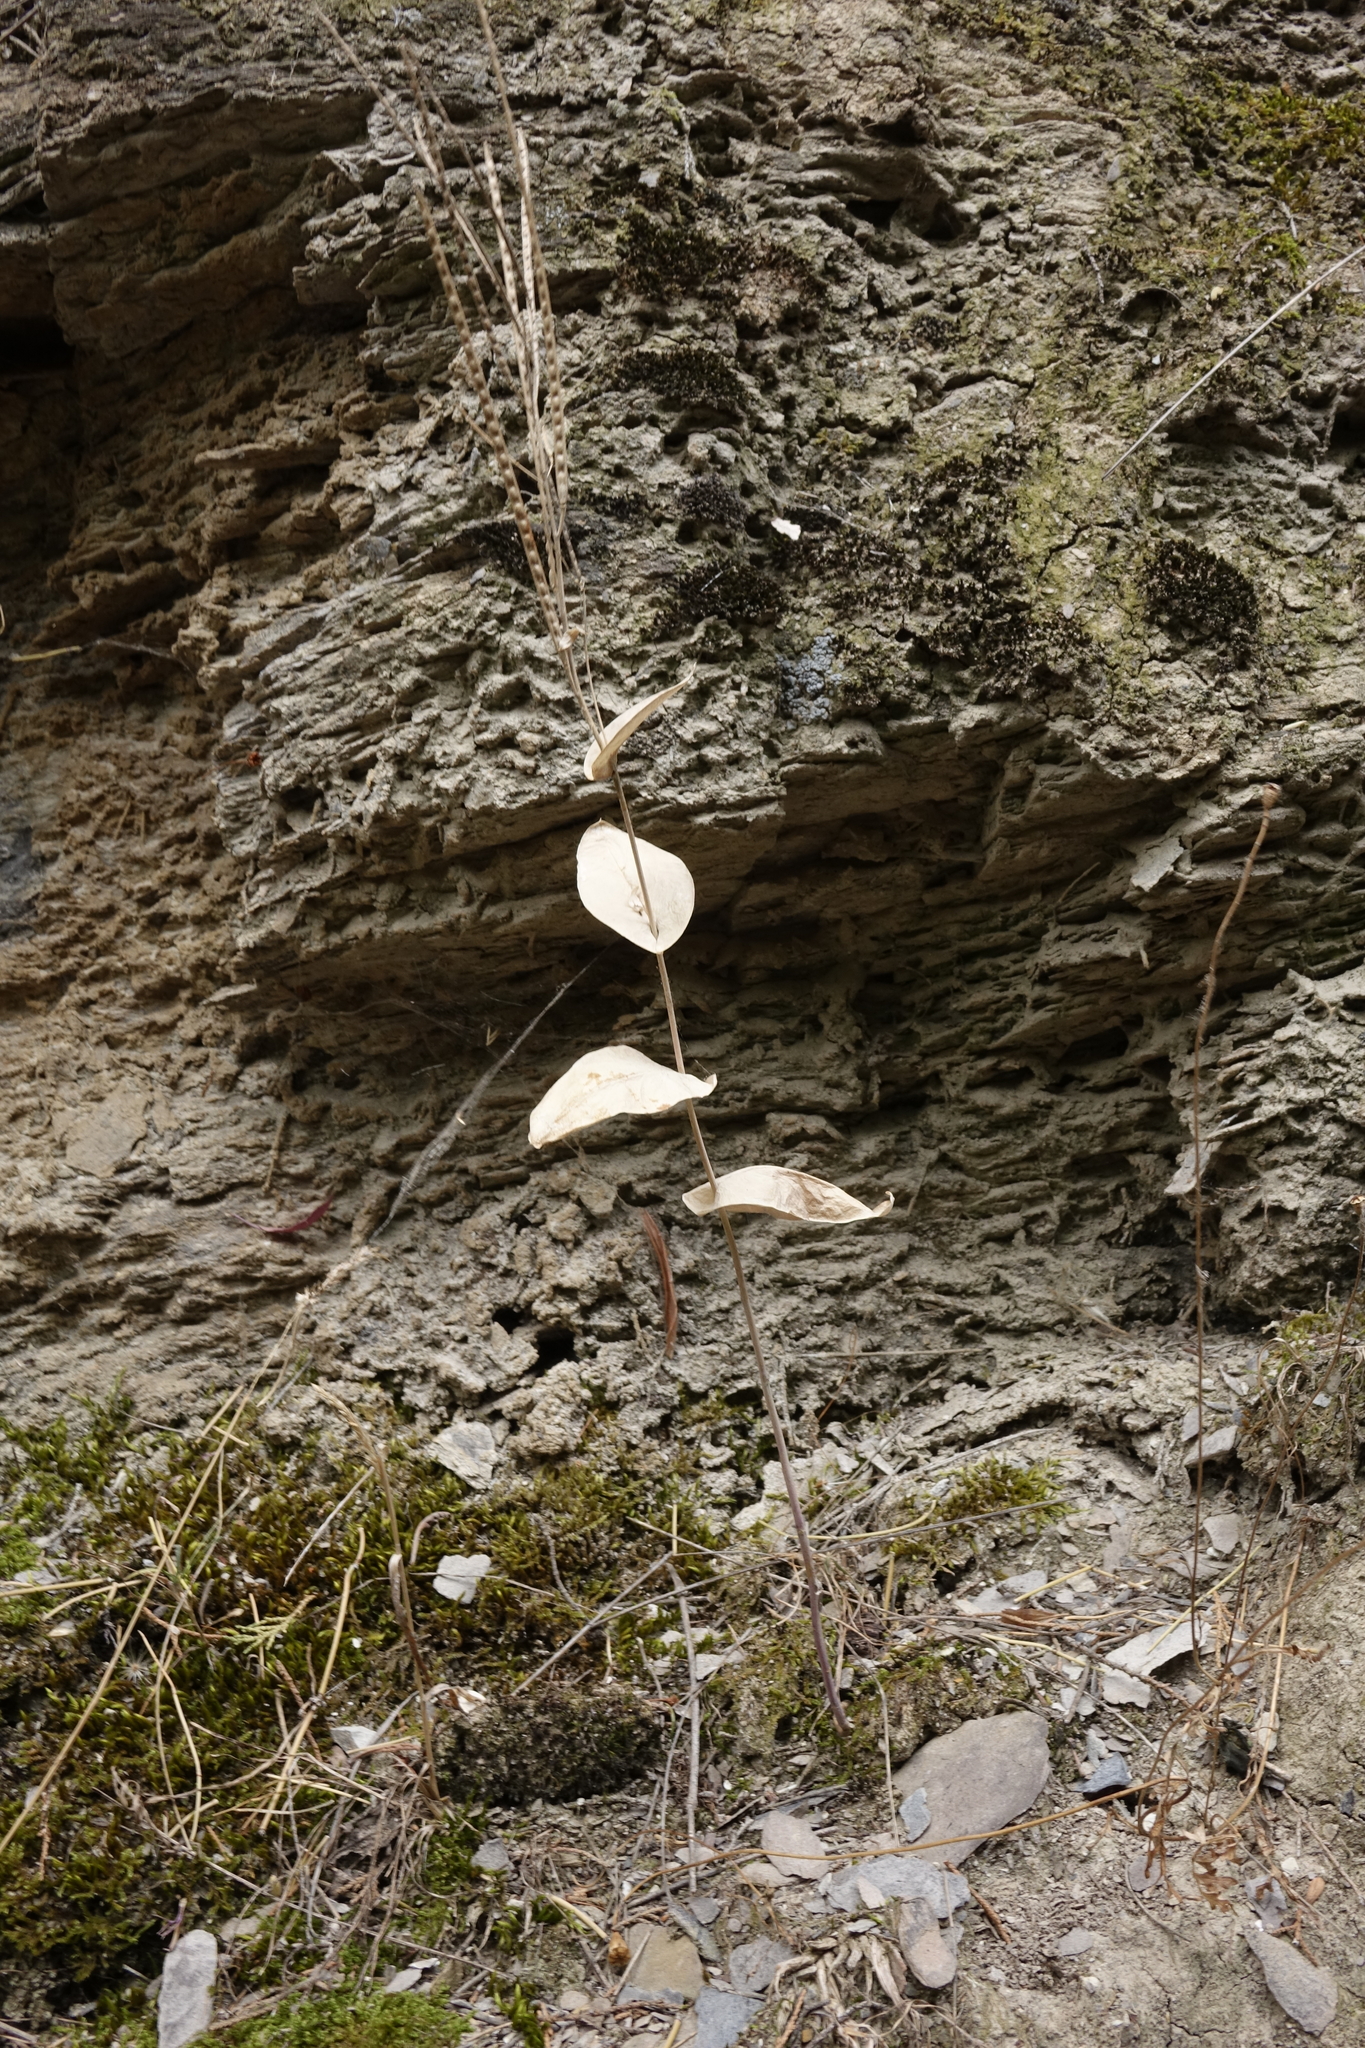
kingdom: Plantae
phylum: Tracheophyta
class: Magnoliopsida
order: Brassicales
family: Brassicaceae
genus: Conringia
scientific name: Conringia planisiliqua
